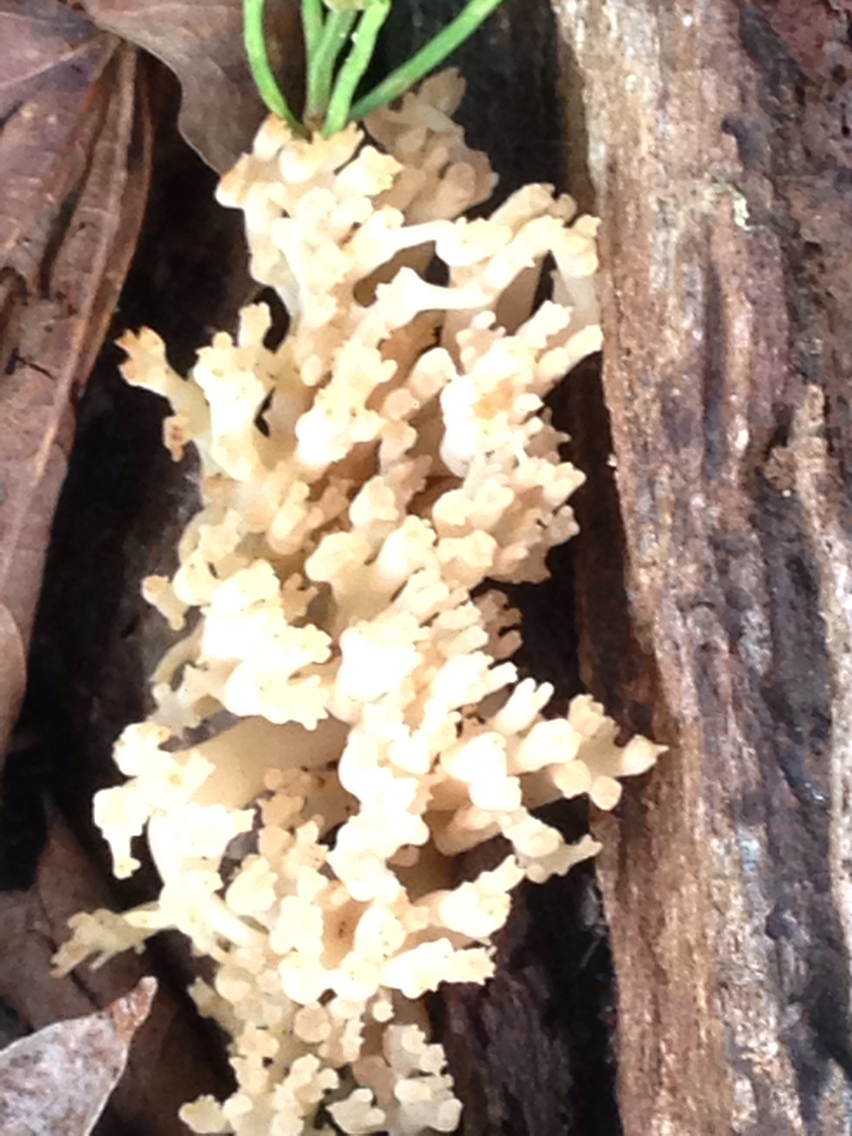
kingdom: Fungi
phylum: Basidiomycota
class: Agaricomycetes
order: Russulales
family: Auriscalpiaceae
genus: Artomyces
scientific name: Artomyces pyxidatus
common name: Crown-tipped coral fungus
